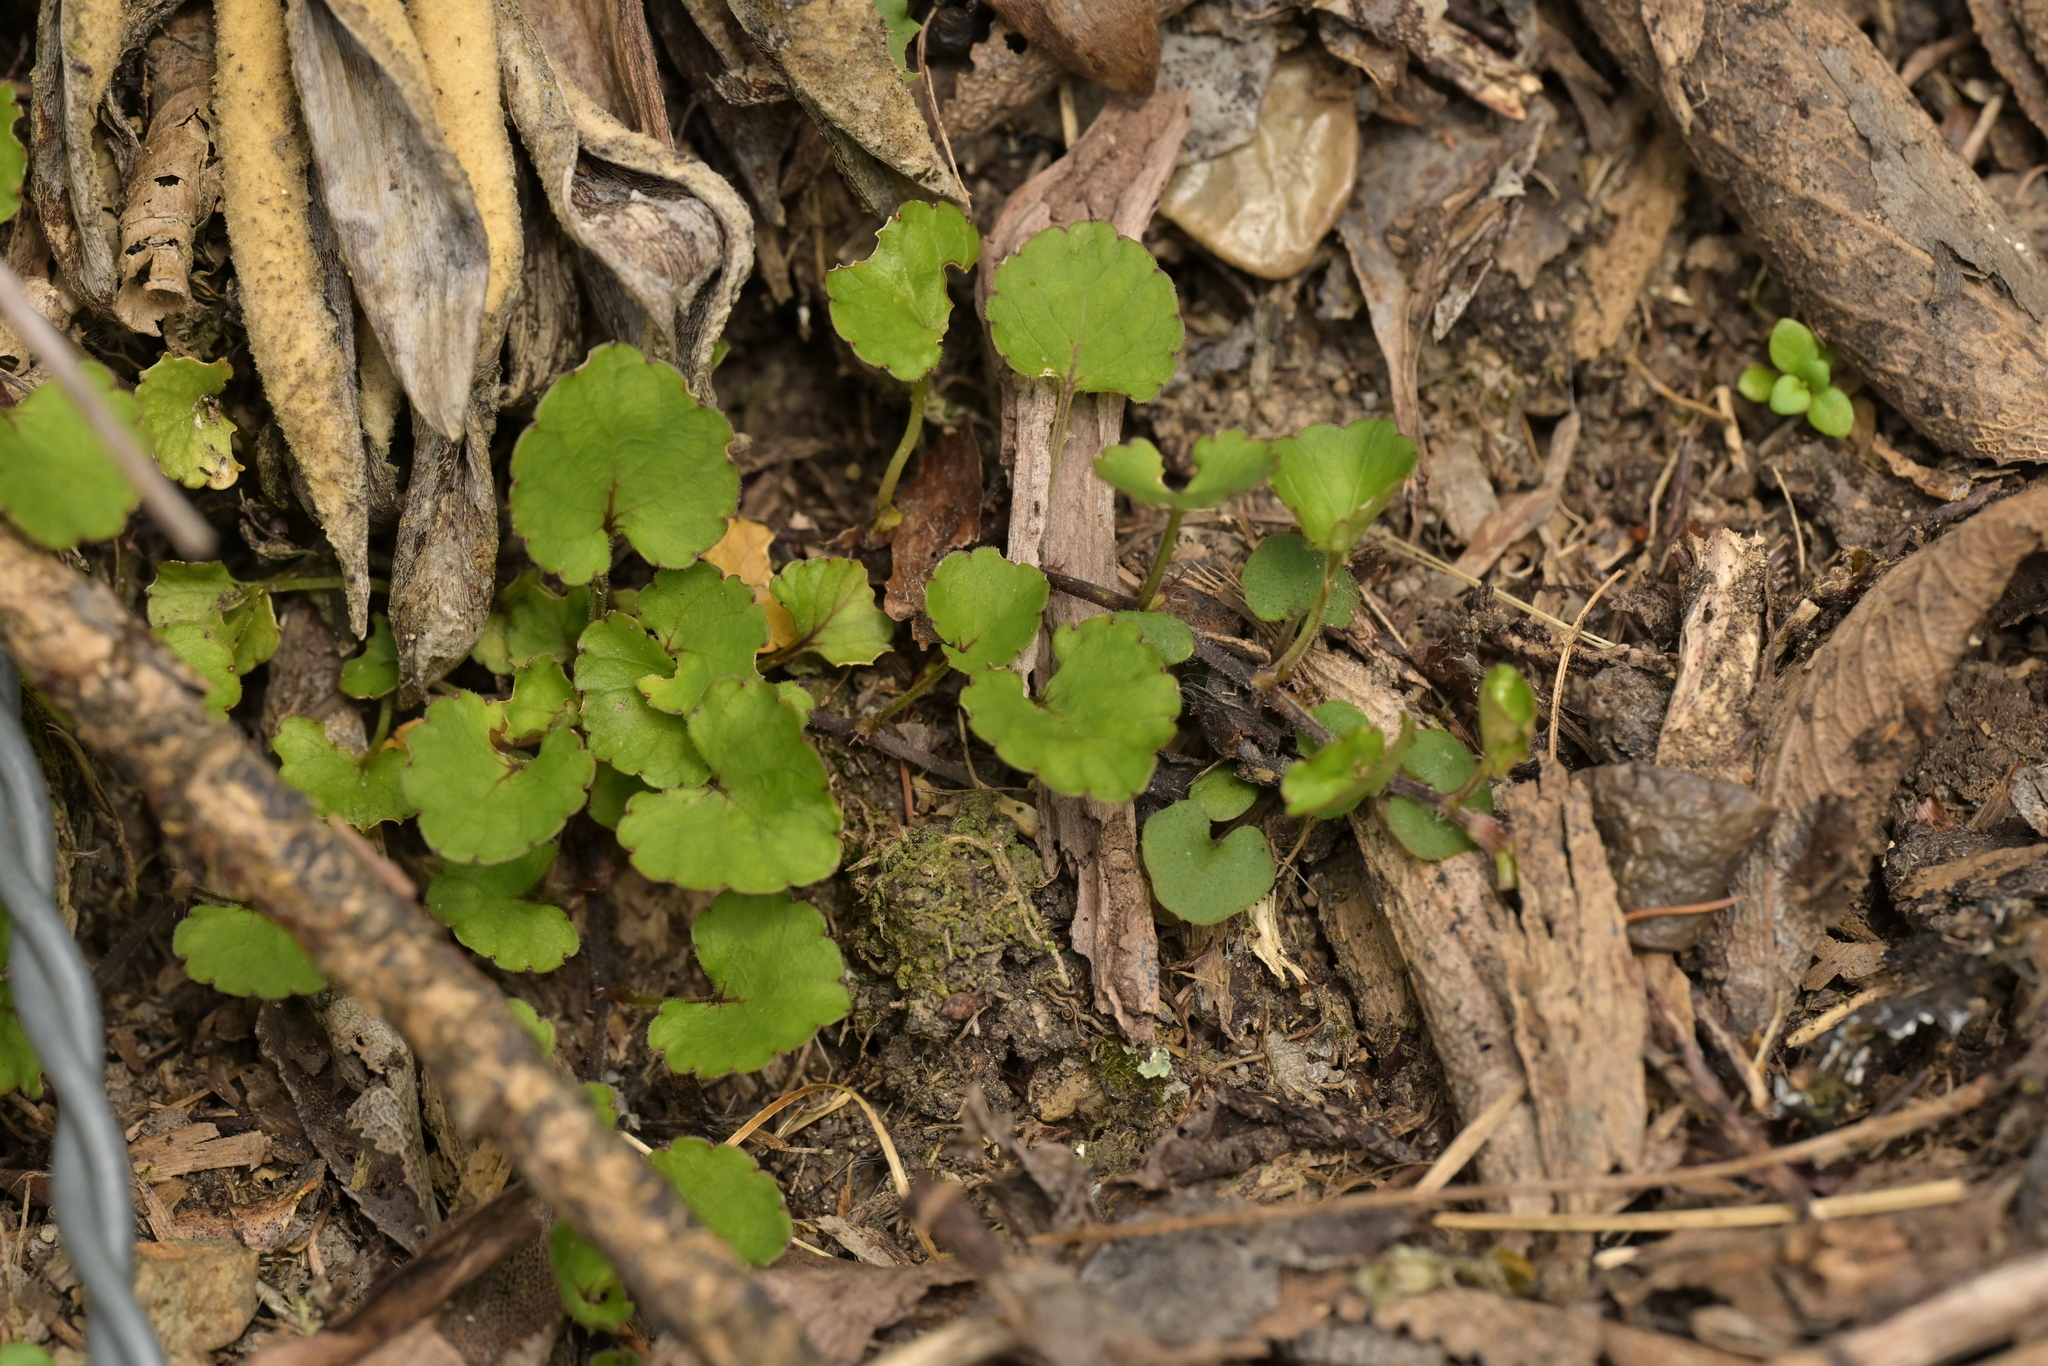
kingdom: Plantae
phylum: Tracheophyta
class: Magnoliopsida
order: Malpighiales
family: Violaceae
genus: Viola
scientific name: Viola filicaulis
